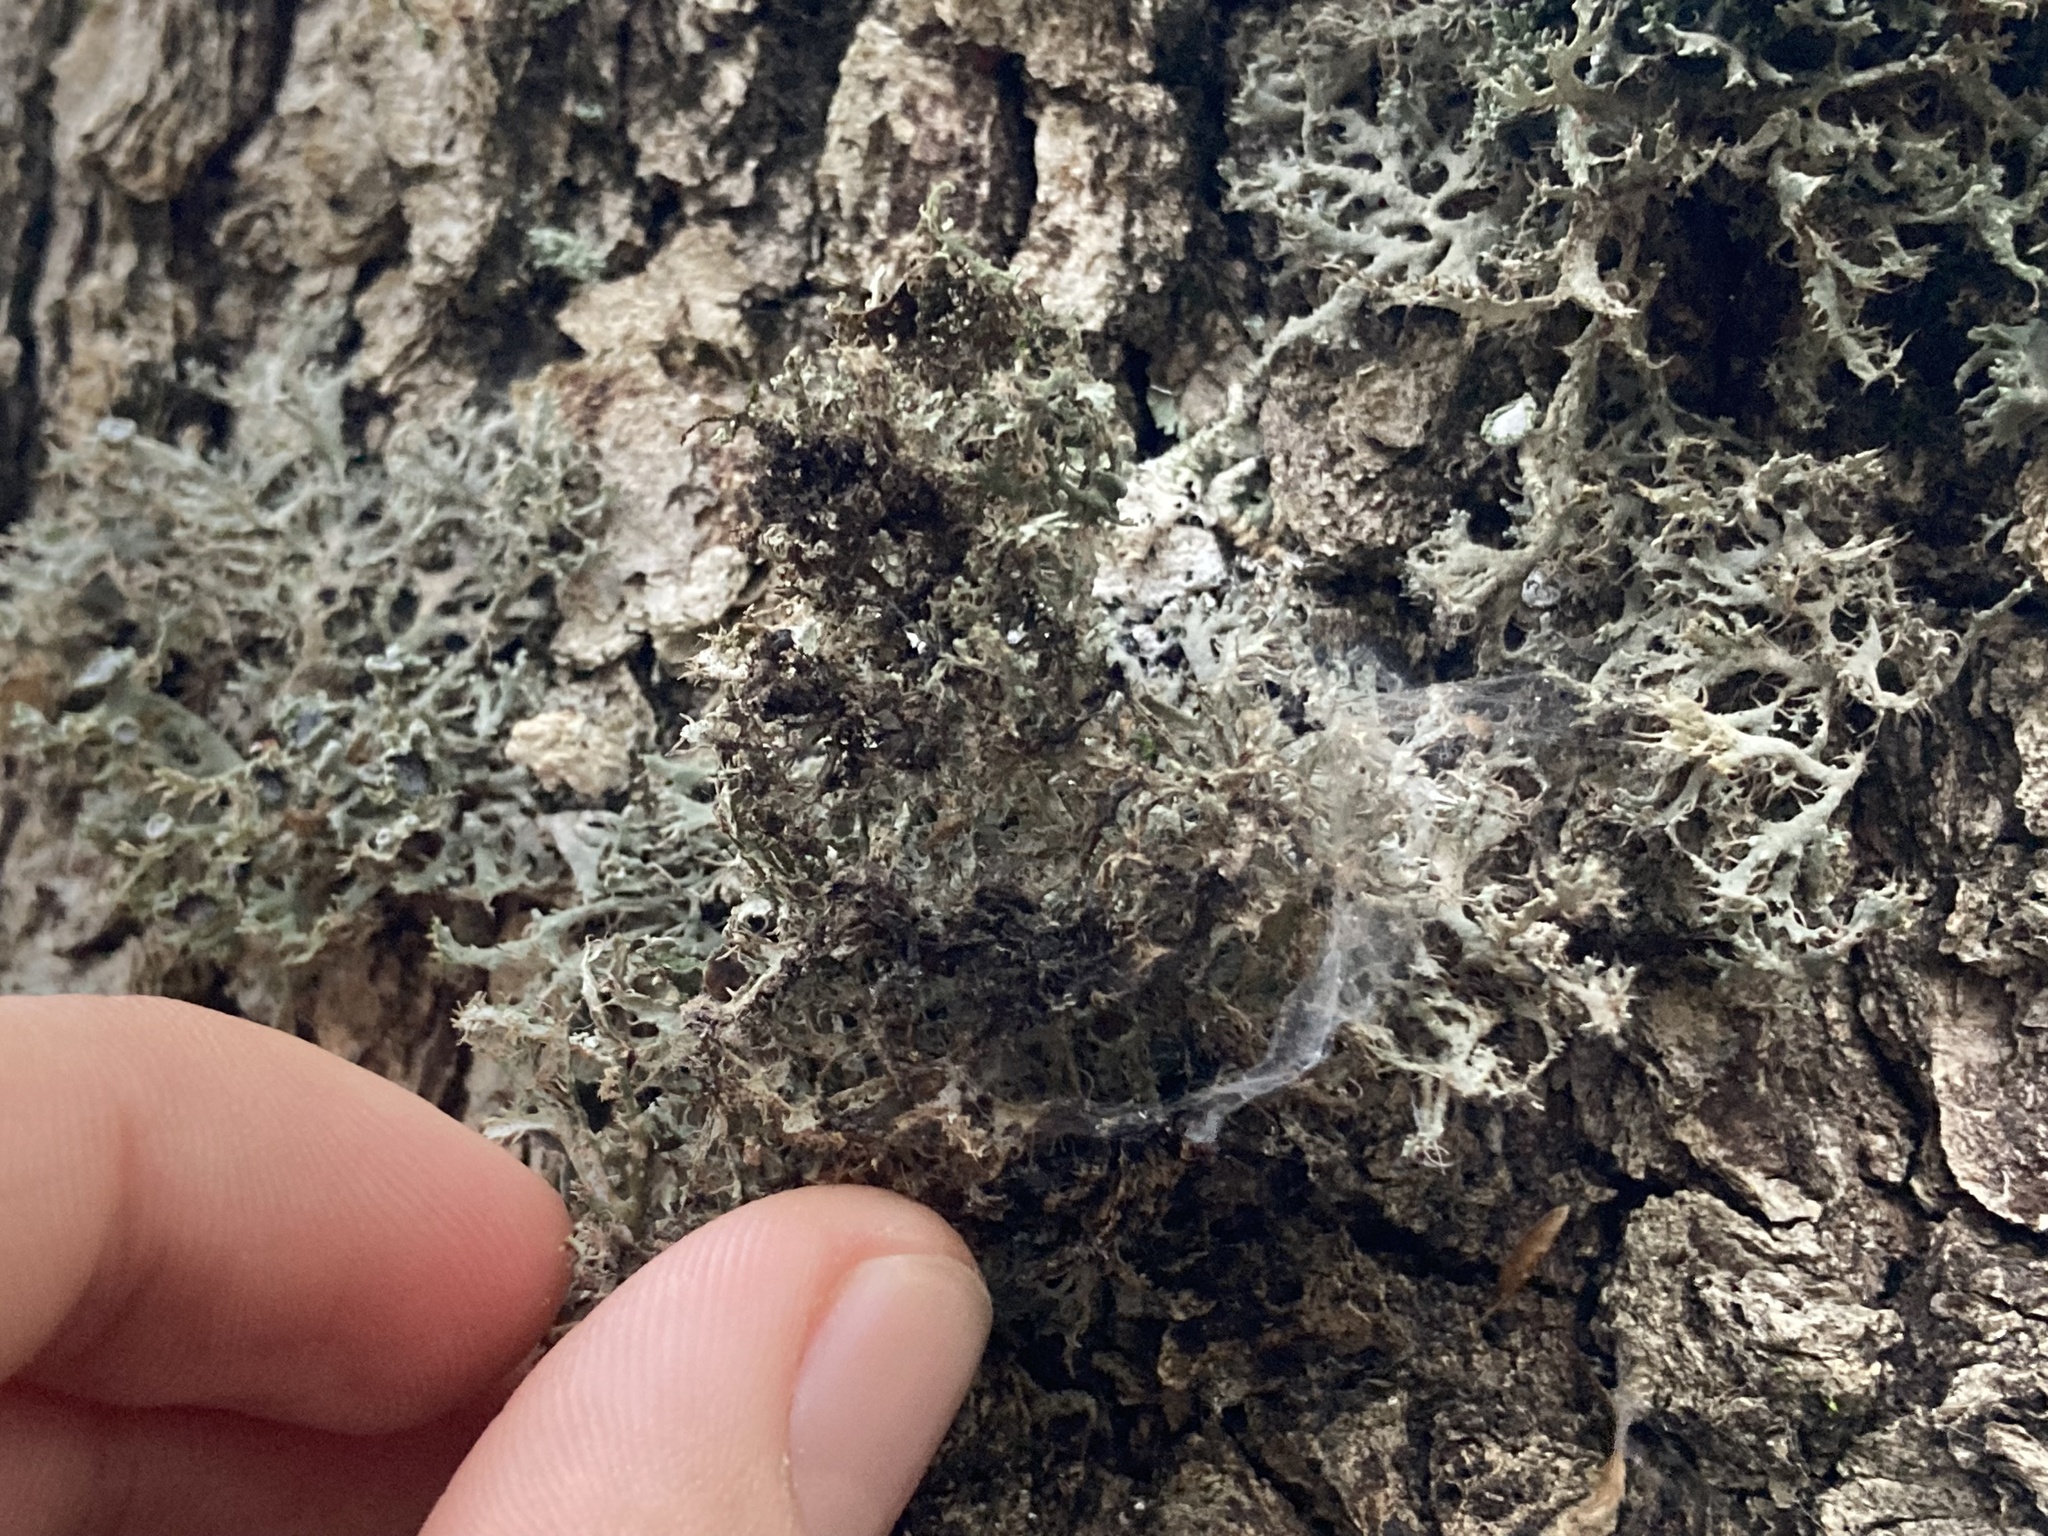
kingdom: Fungi
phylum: Ascomycota
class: Lecanoromycetes
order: Caliciales
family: Physciaceae
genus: Anaptychia
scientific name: Anaptychia ciliaris
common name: Great ciliated lichen
